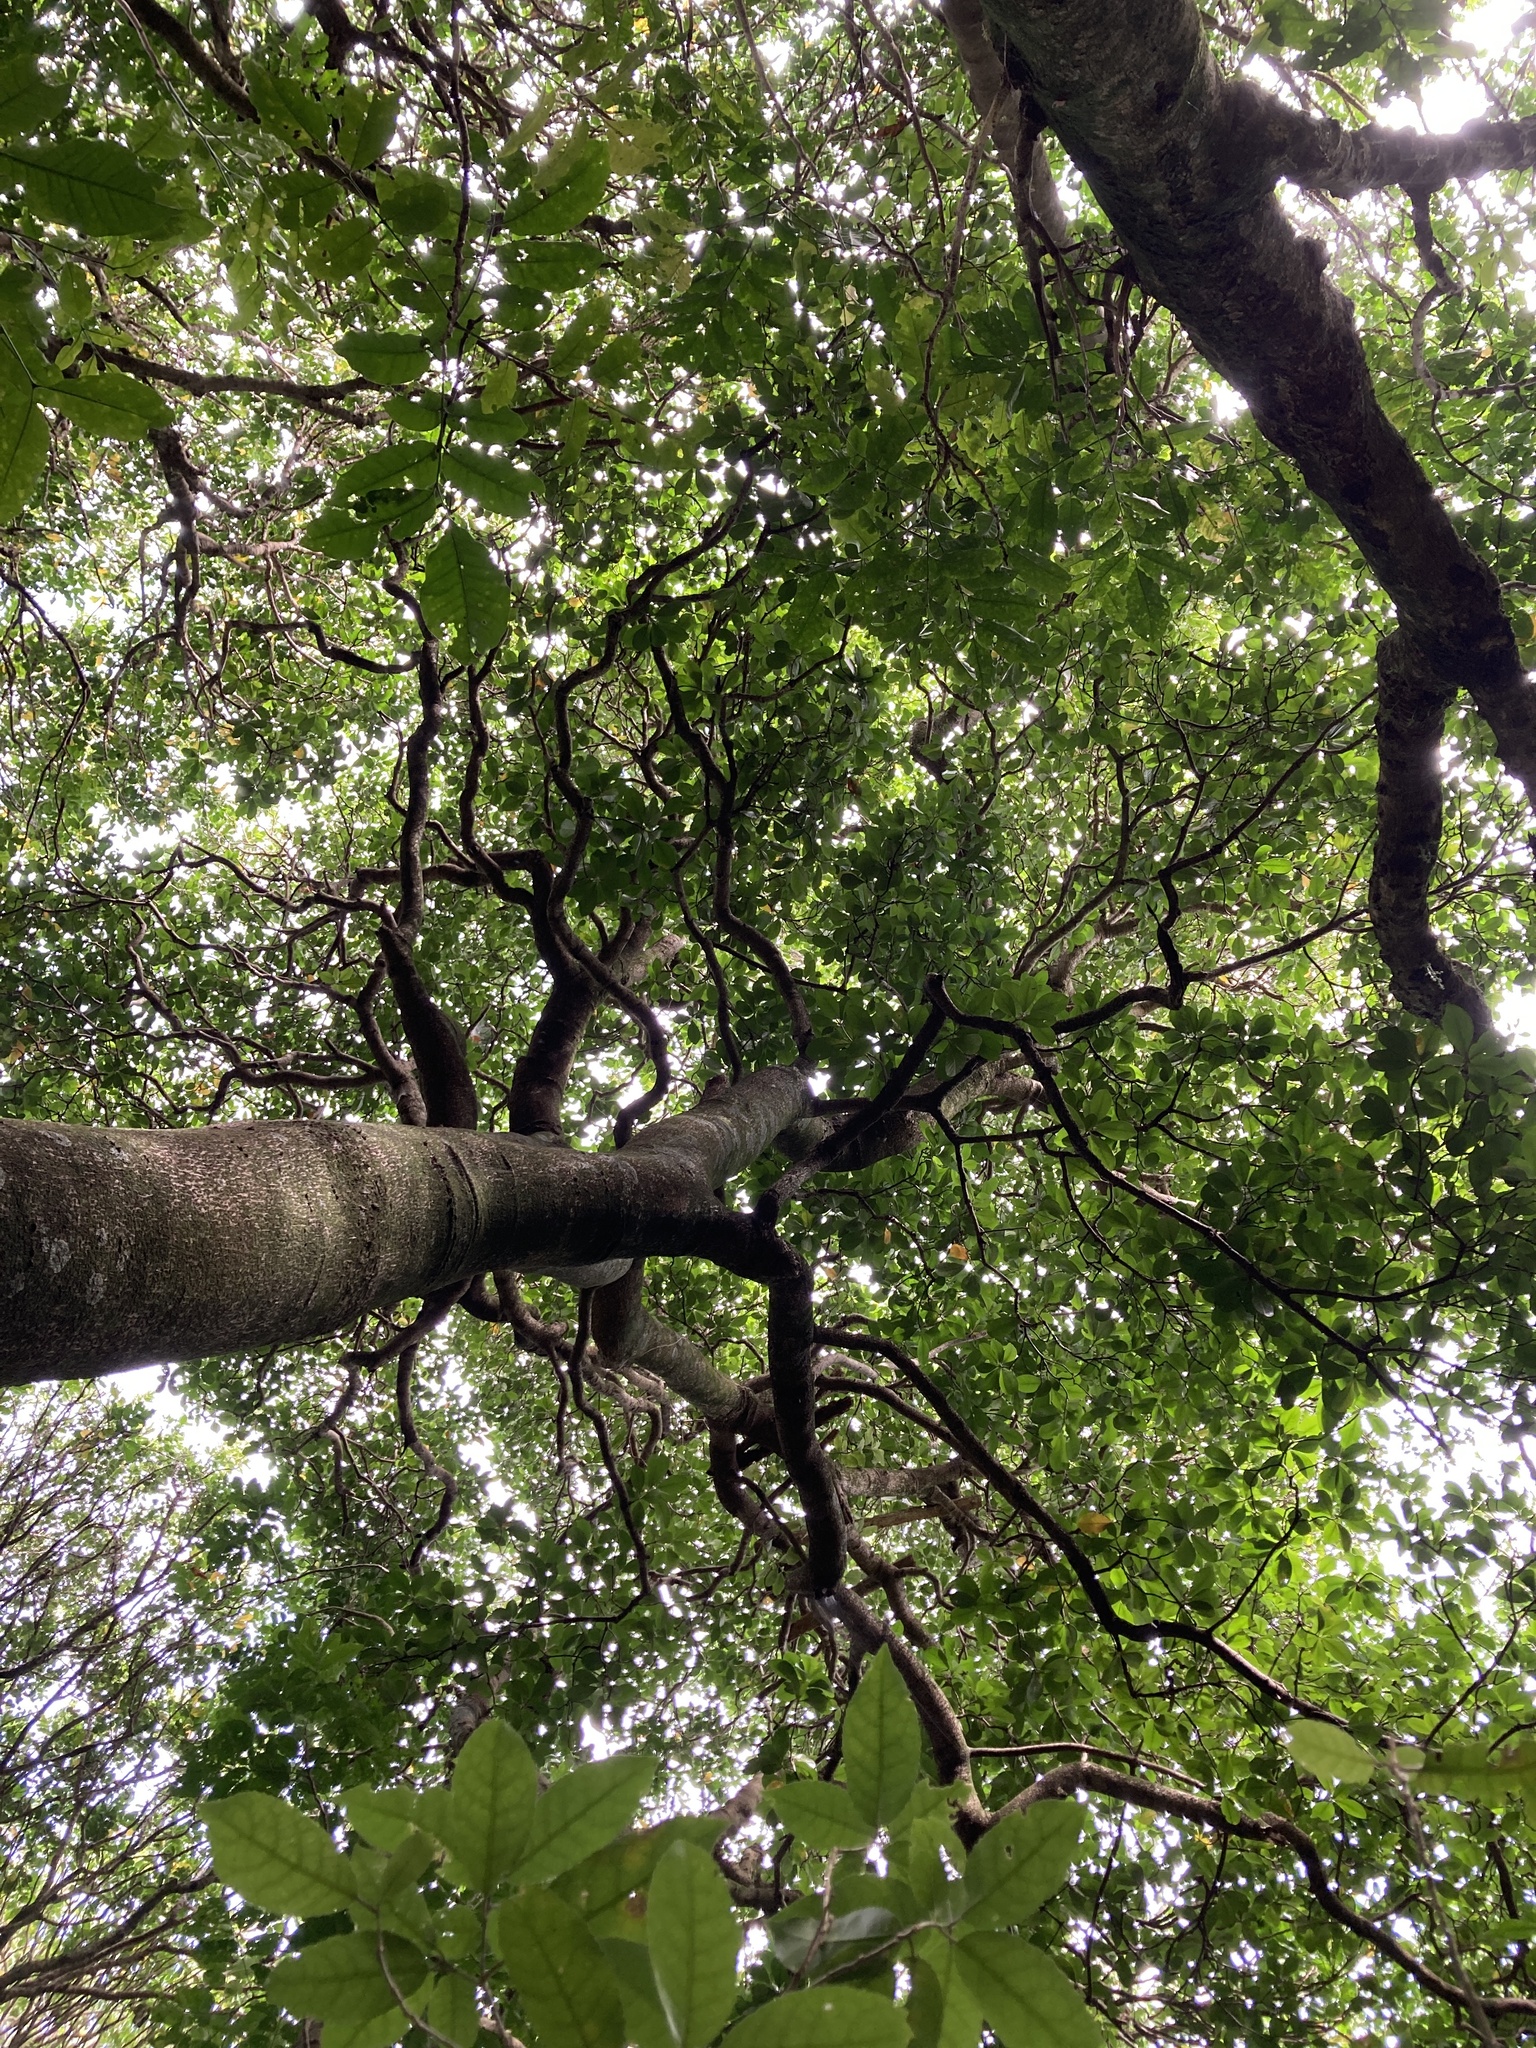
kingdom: Plantae
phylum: Tracheophyta
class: Magnoliopsida
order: Cucurbitales
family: Corynocarpaceae
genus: Corynocarpus
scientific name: Corynocarpus laevigatus
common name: New zealand laurel
